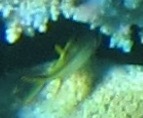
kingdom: Animalia
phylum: Chordata
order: Beryciformes
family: Holocentridae
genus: Neoniphon
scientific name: Neoniphon sammara
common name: Sammara squirrelfish
